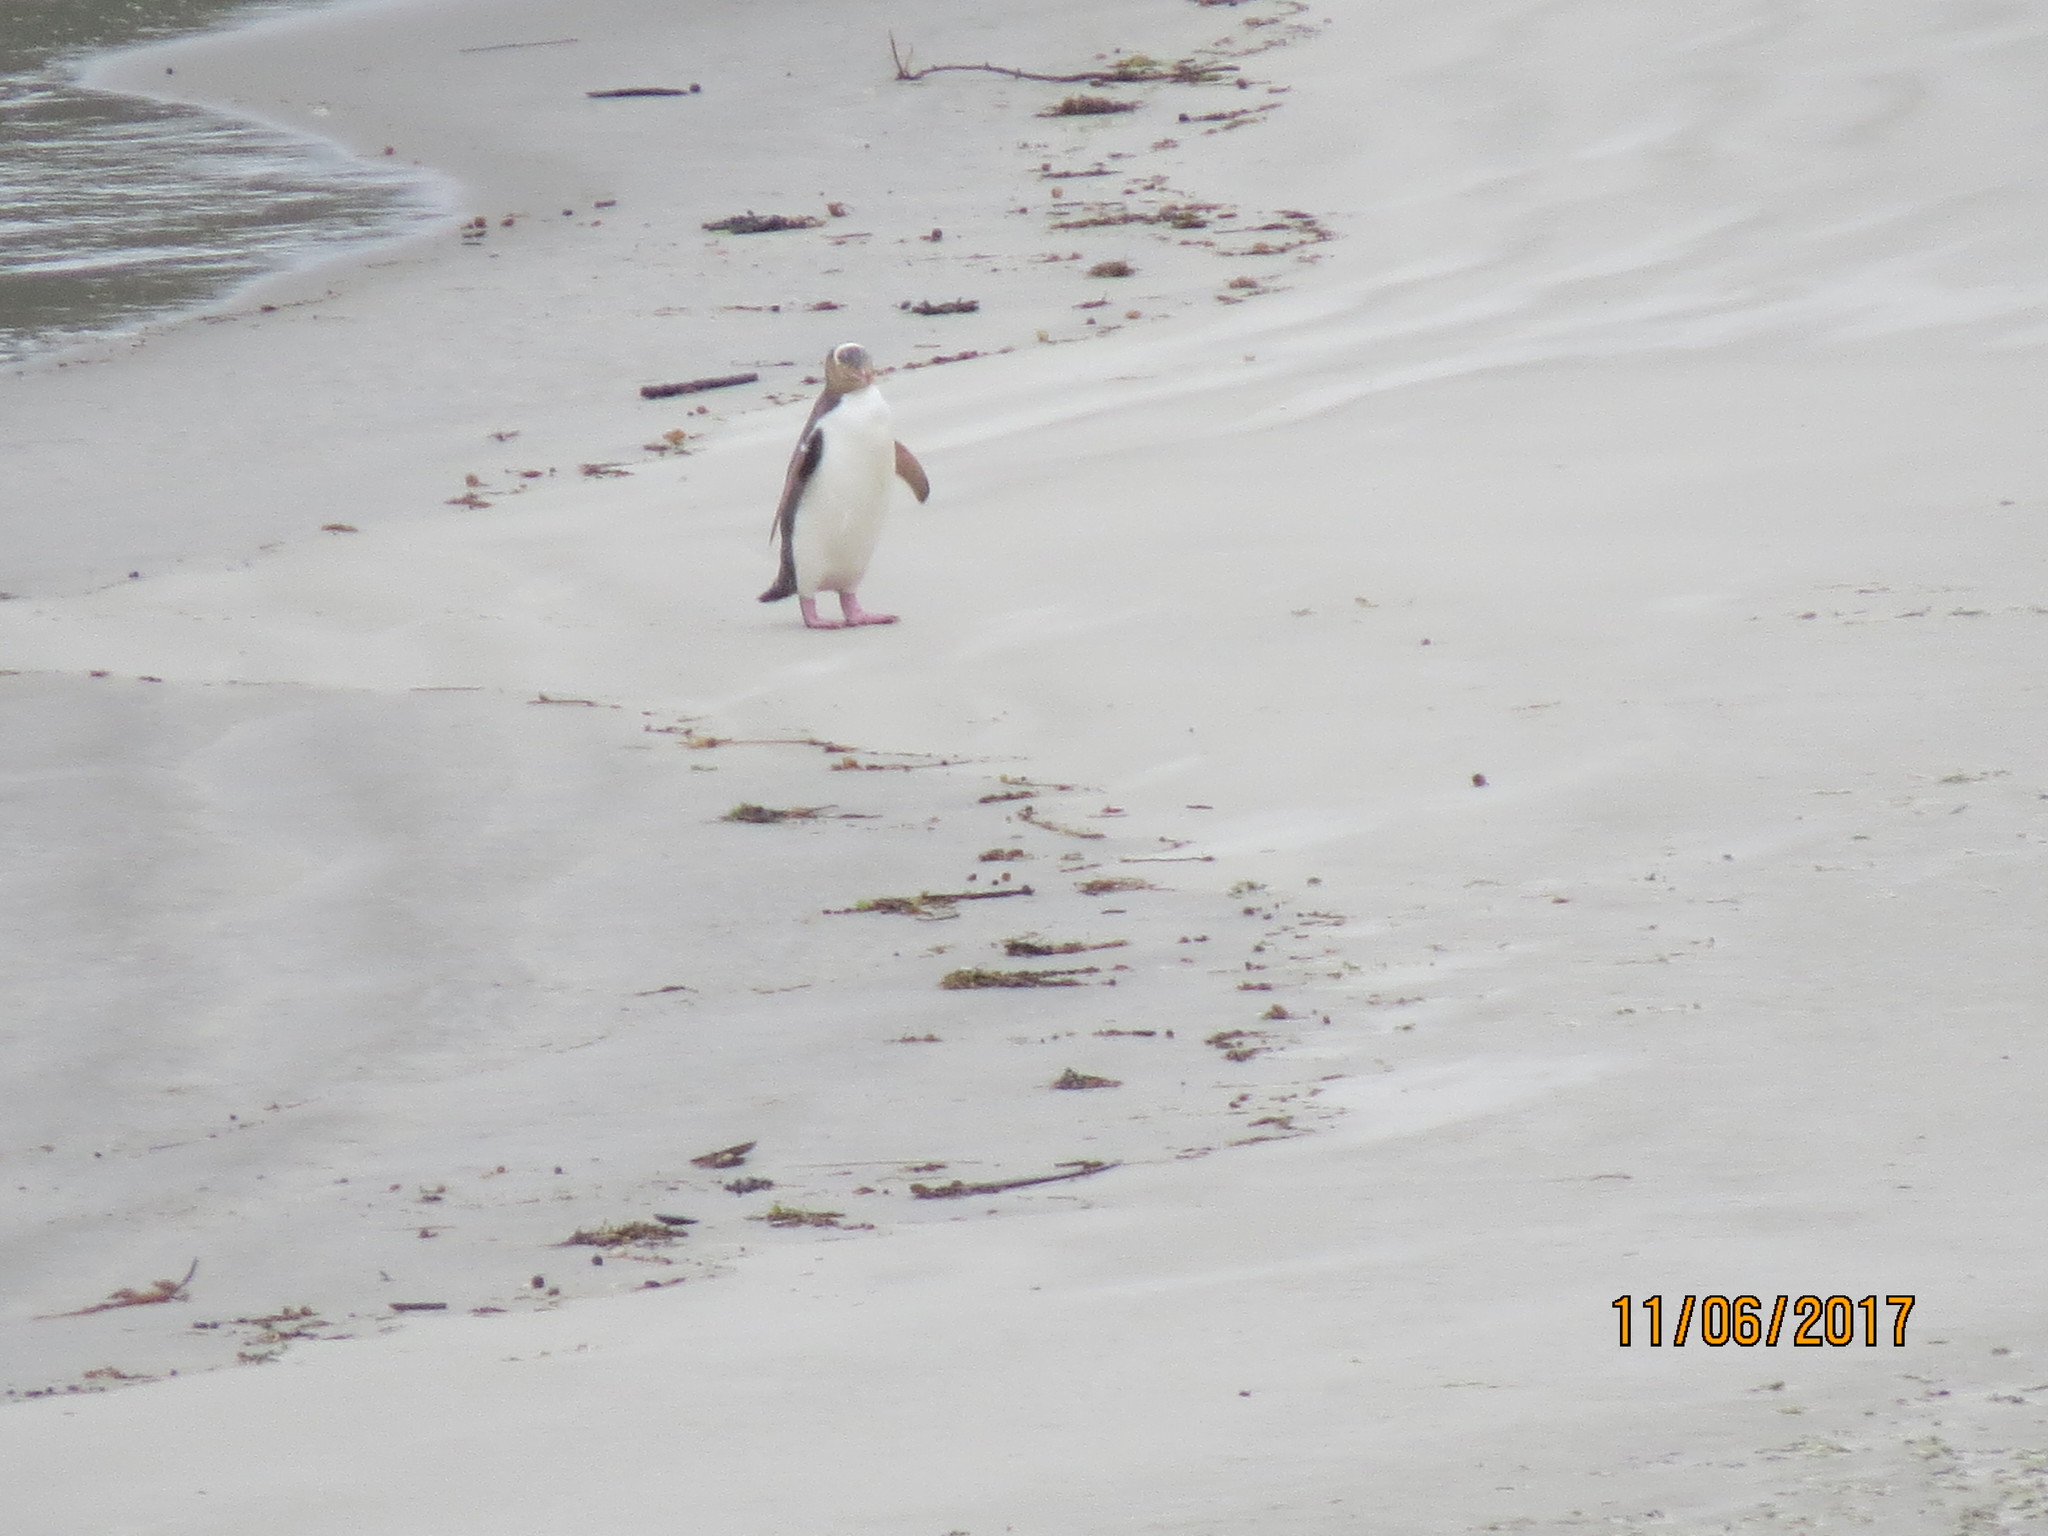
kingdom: Animalia
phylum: Chordata
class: Aves
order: Sphenisciformes
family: Spheniscidae
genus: Megadyptes
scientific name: Megadyptes antipodes
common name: Yellow-eyed penguin
